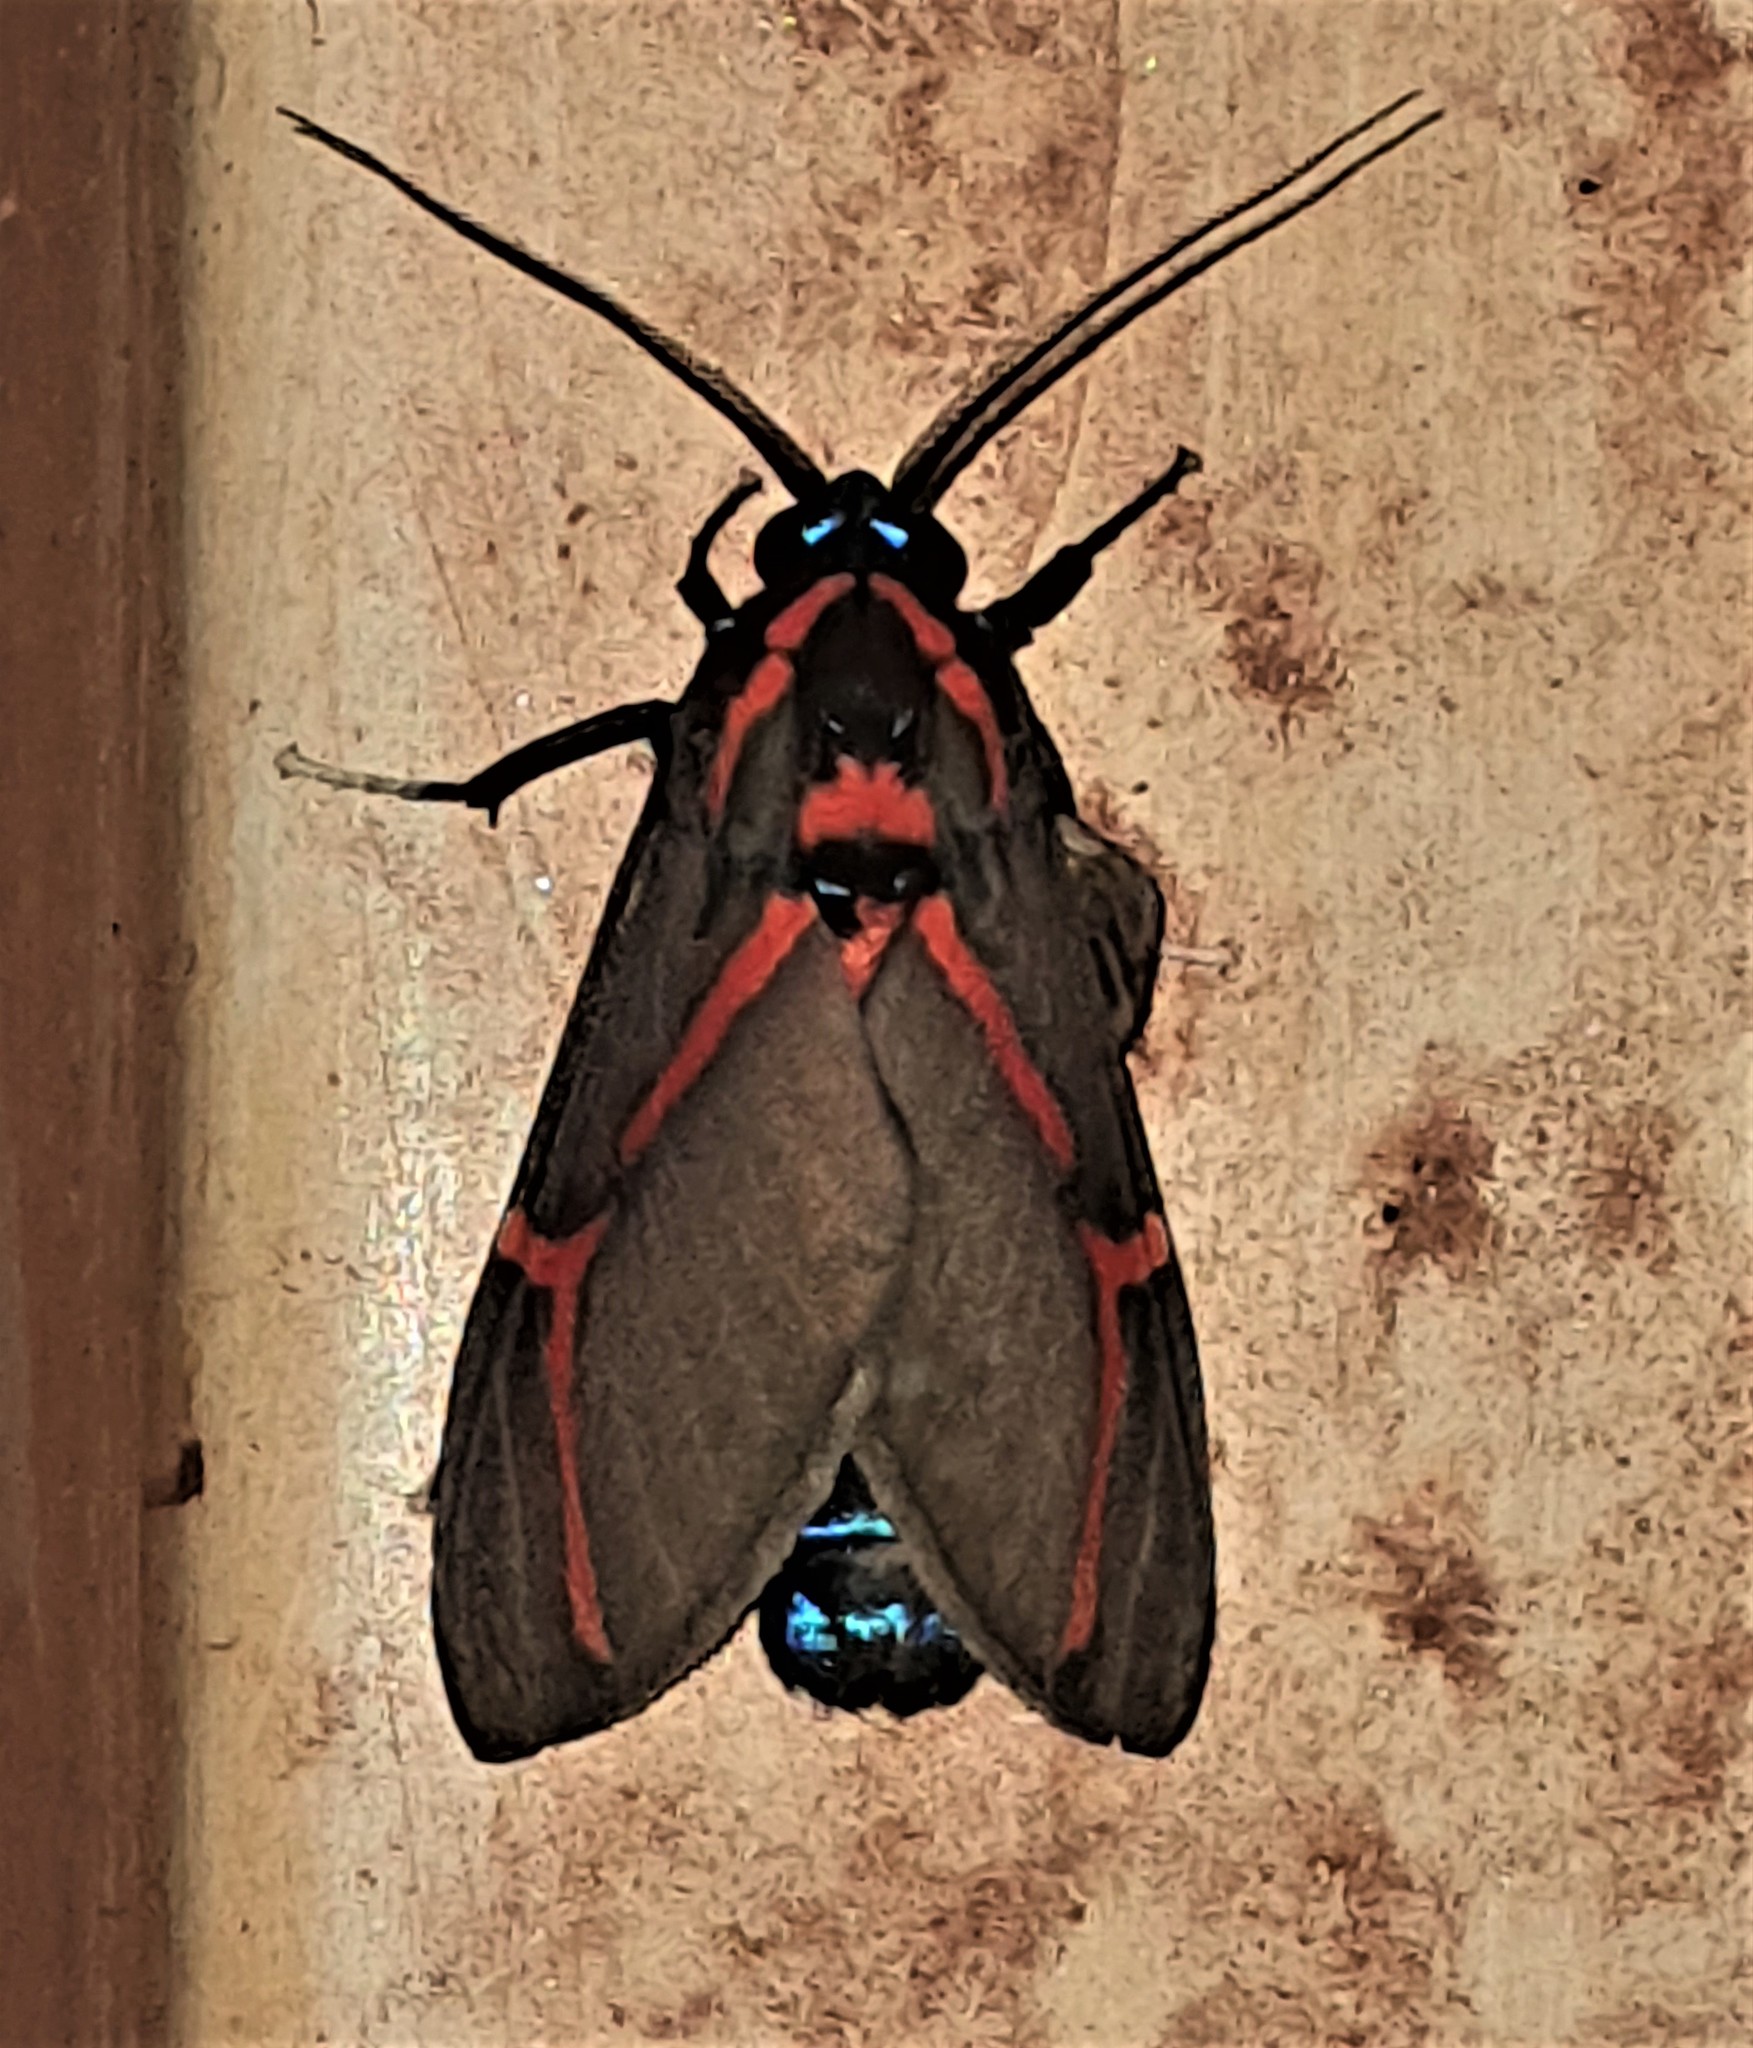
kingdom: Animalia
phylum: Arthropoda
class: Insecta
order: Lepidoptera
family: Erebidae
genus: Himerarctia
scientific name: Himerarctia docis
